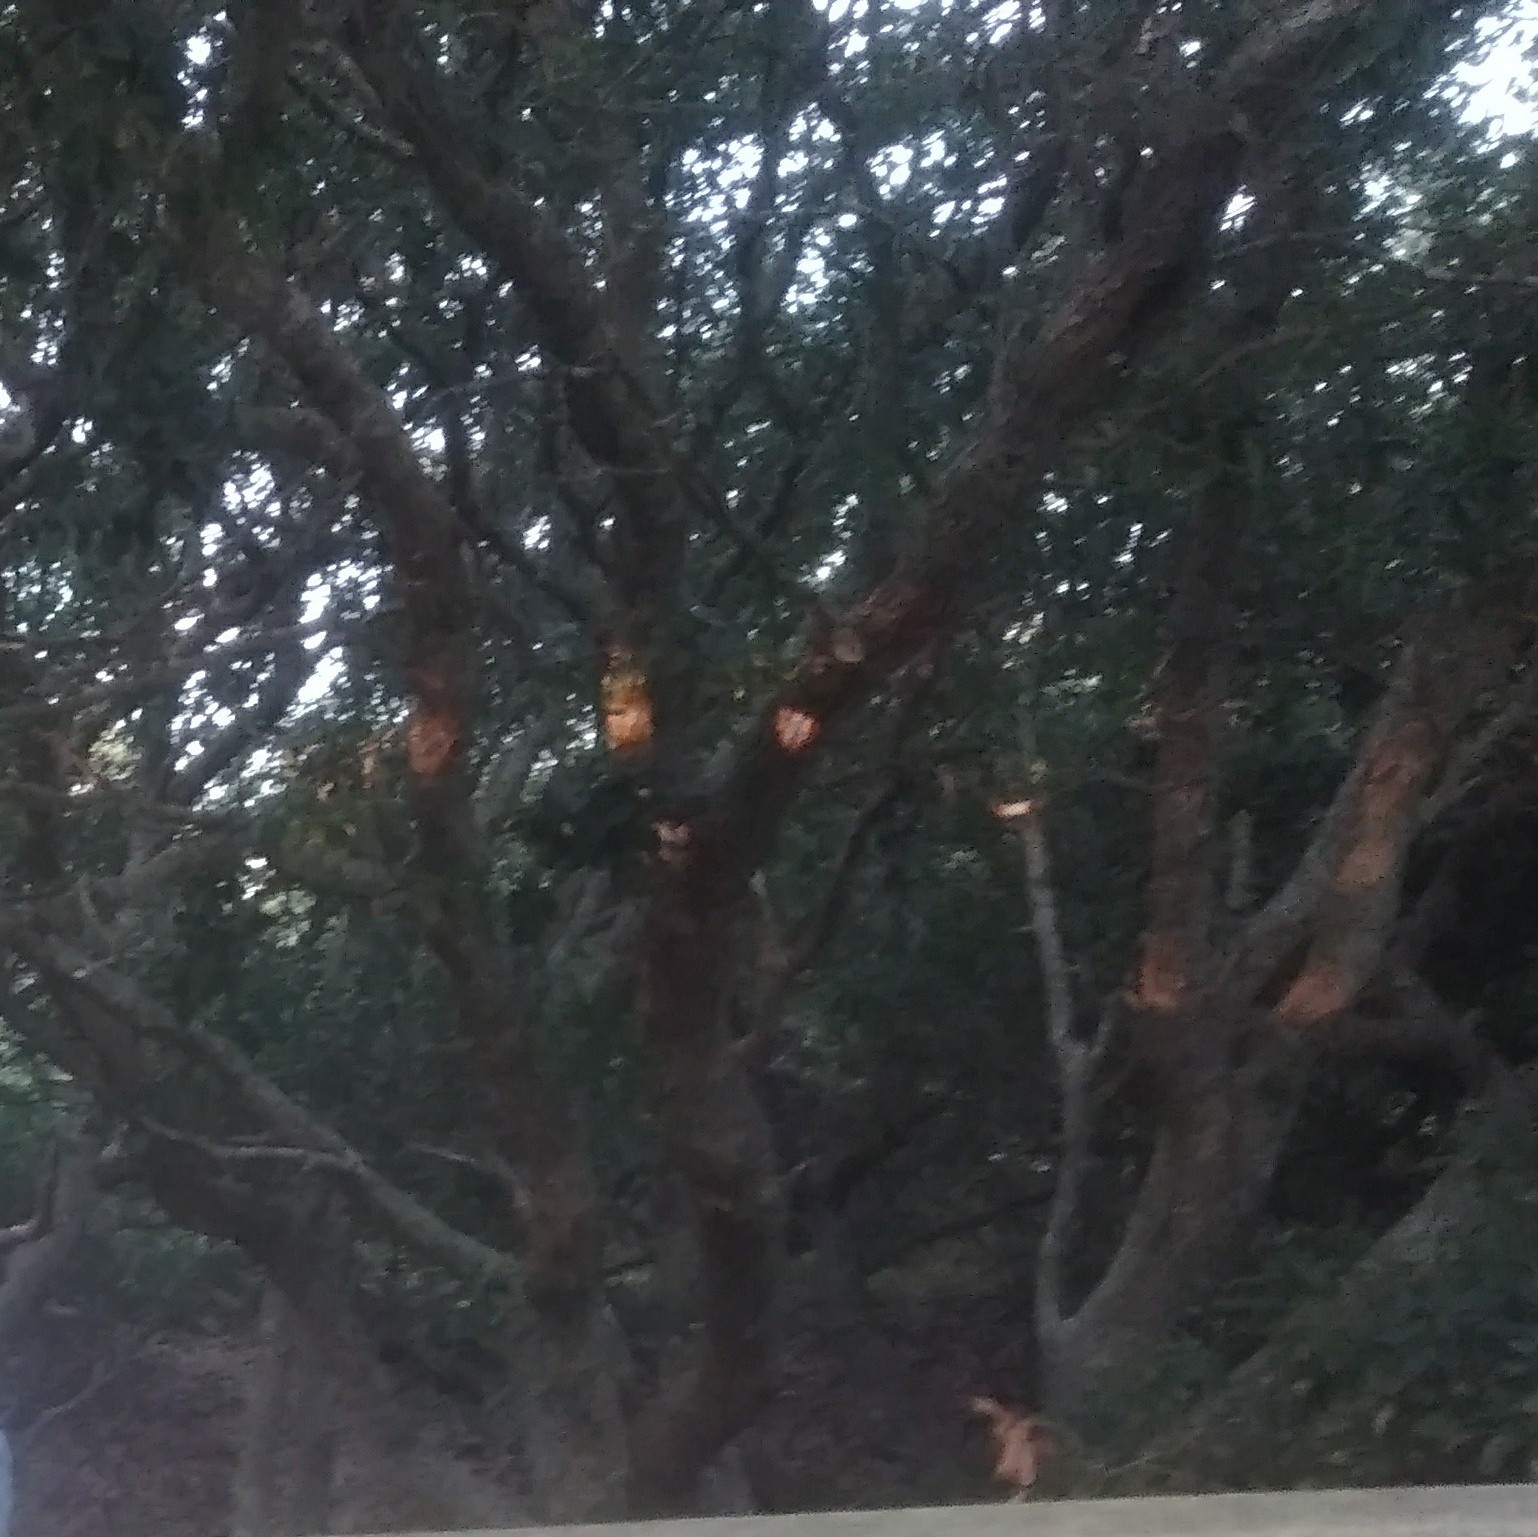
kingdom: Plantae
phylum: Tracheophyta
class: Magnoliopsida
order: Fagales
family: Fagaceae
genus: Quercus
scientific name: Quercus virginiana
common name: Southern live oak
